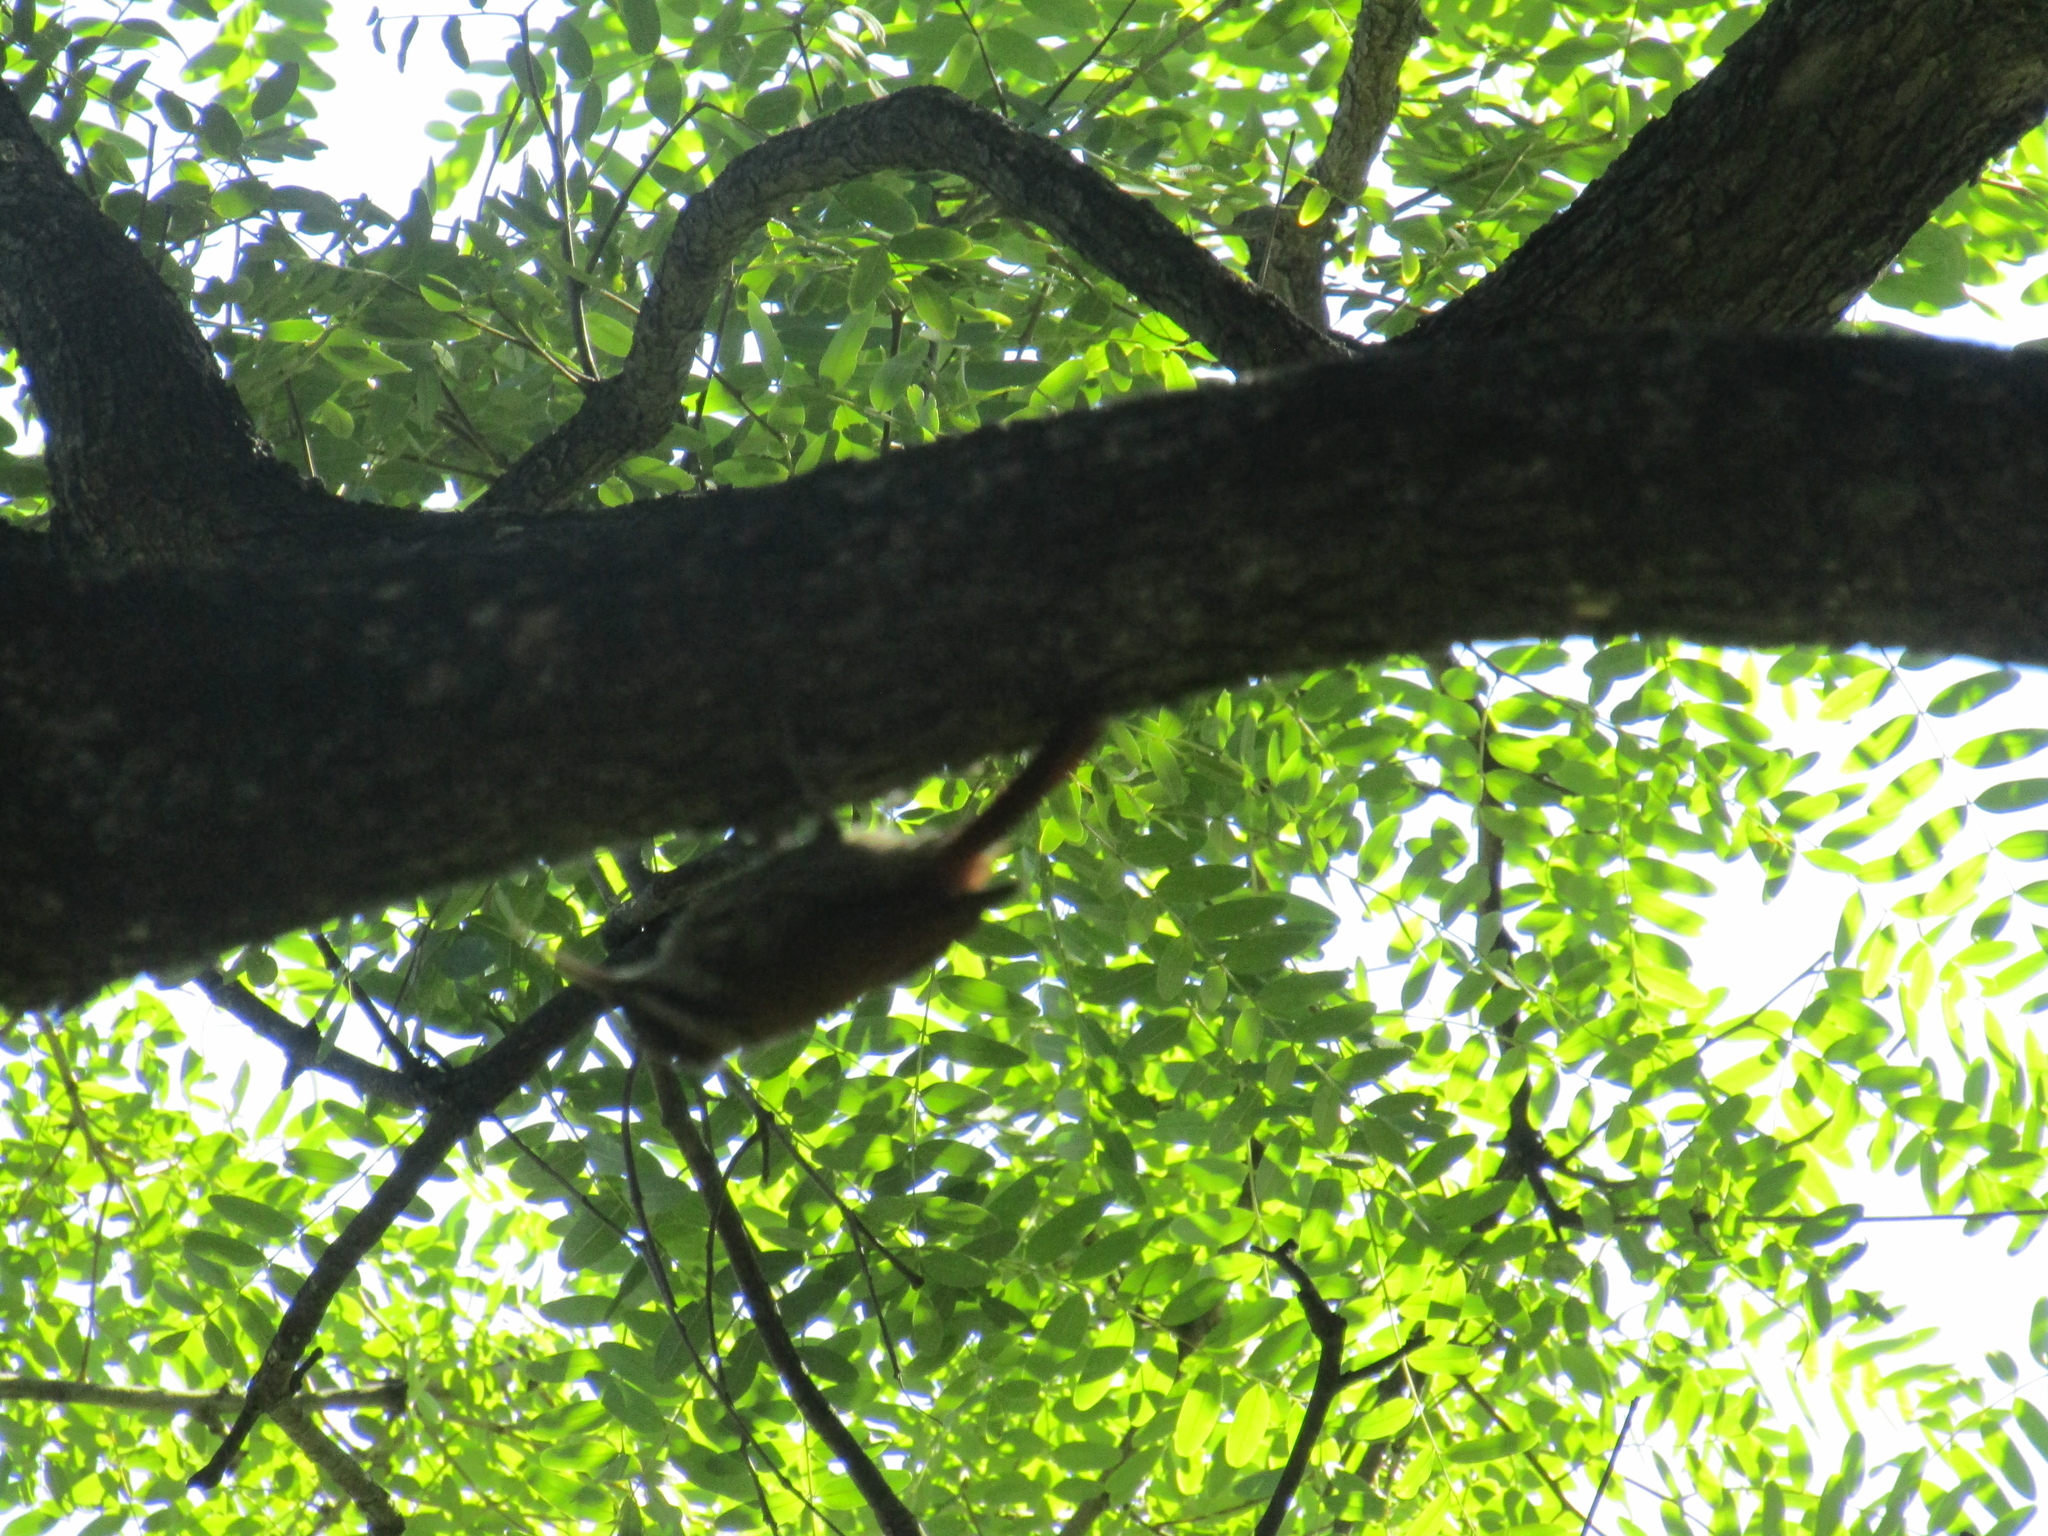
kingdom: Animalia
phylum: Chordata
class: Aves
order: Passeriformes
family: Furnariidae
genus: Lepidocolaptes
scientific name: Lepidocolaptes angustirostris
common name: Narrow-billed woodcreeper
